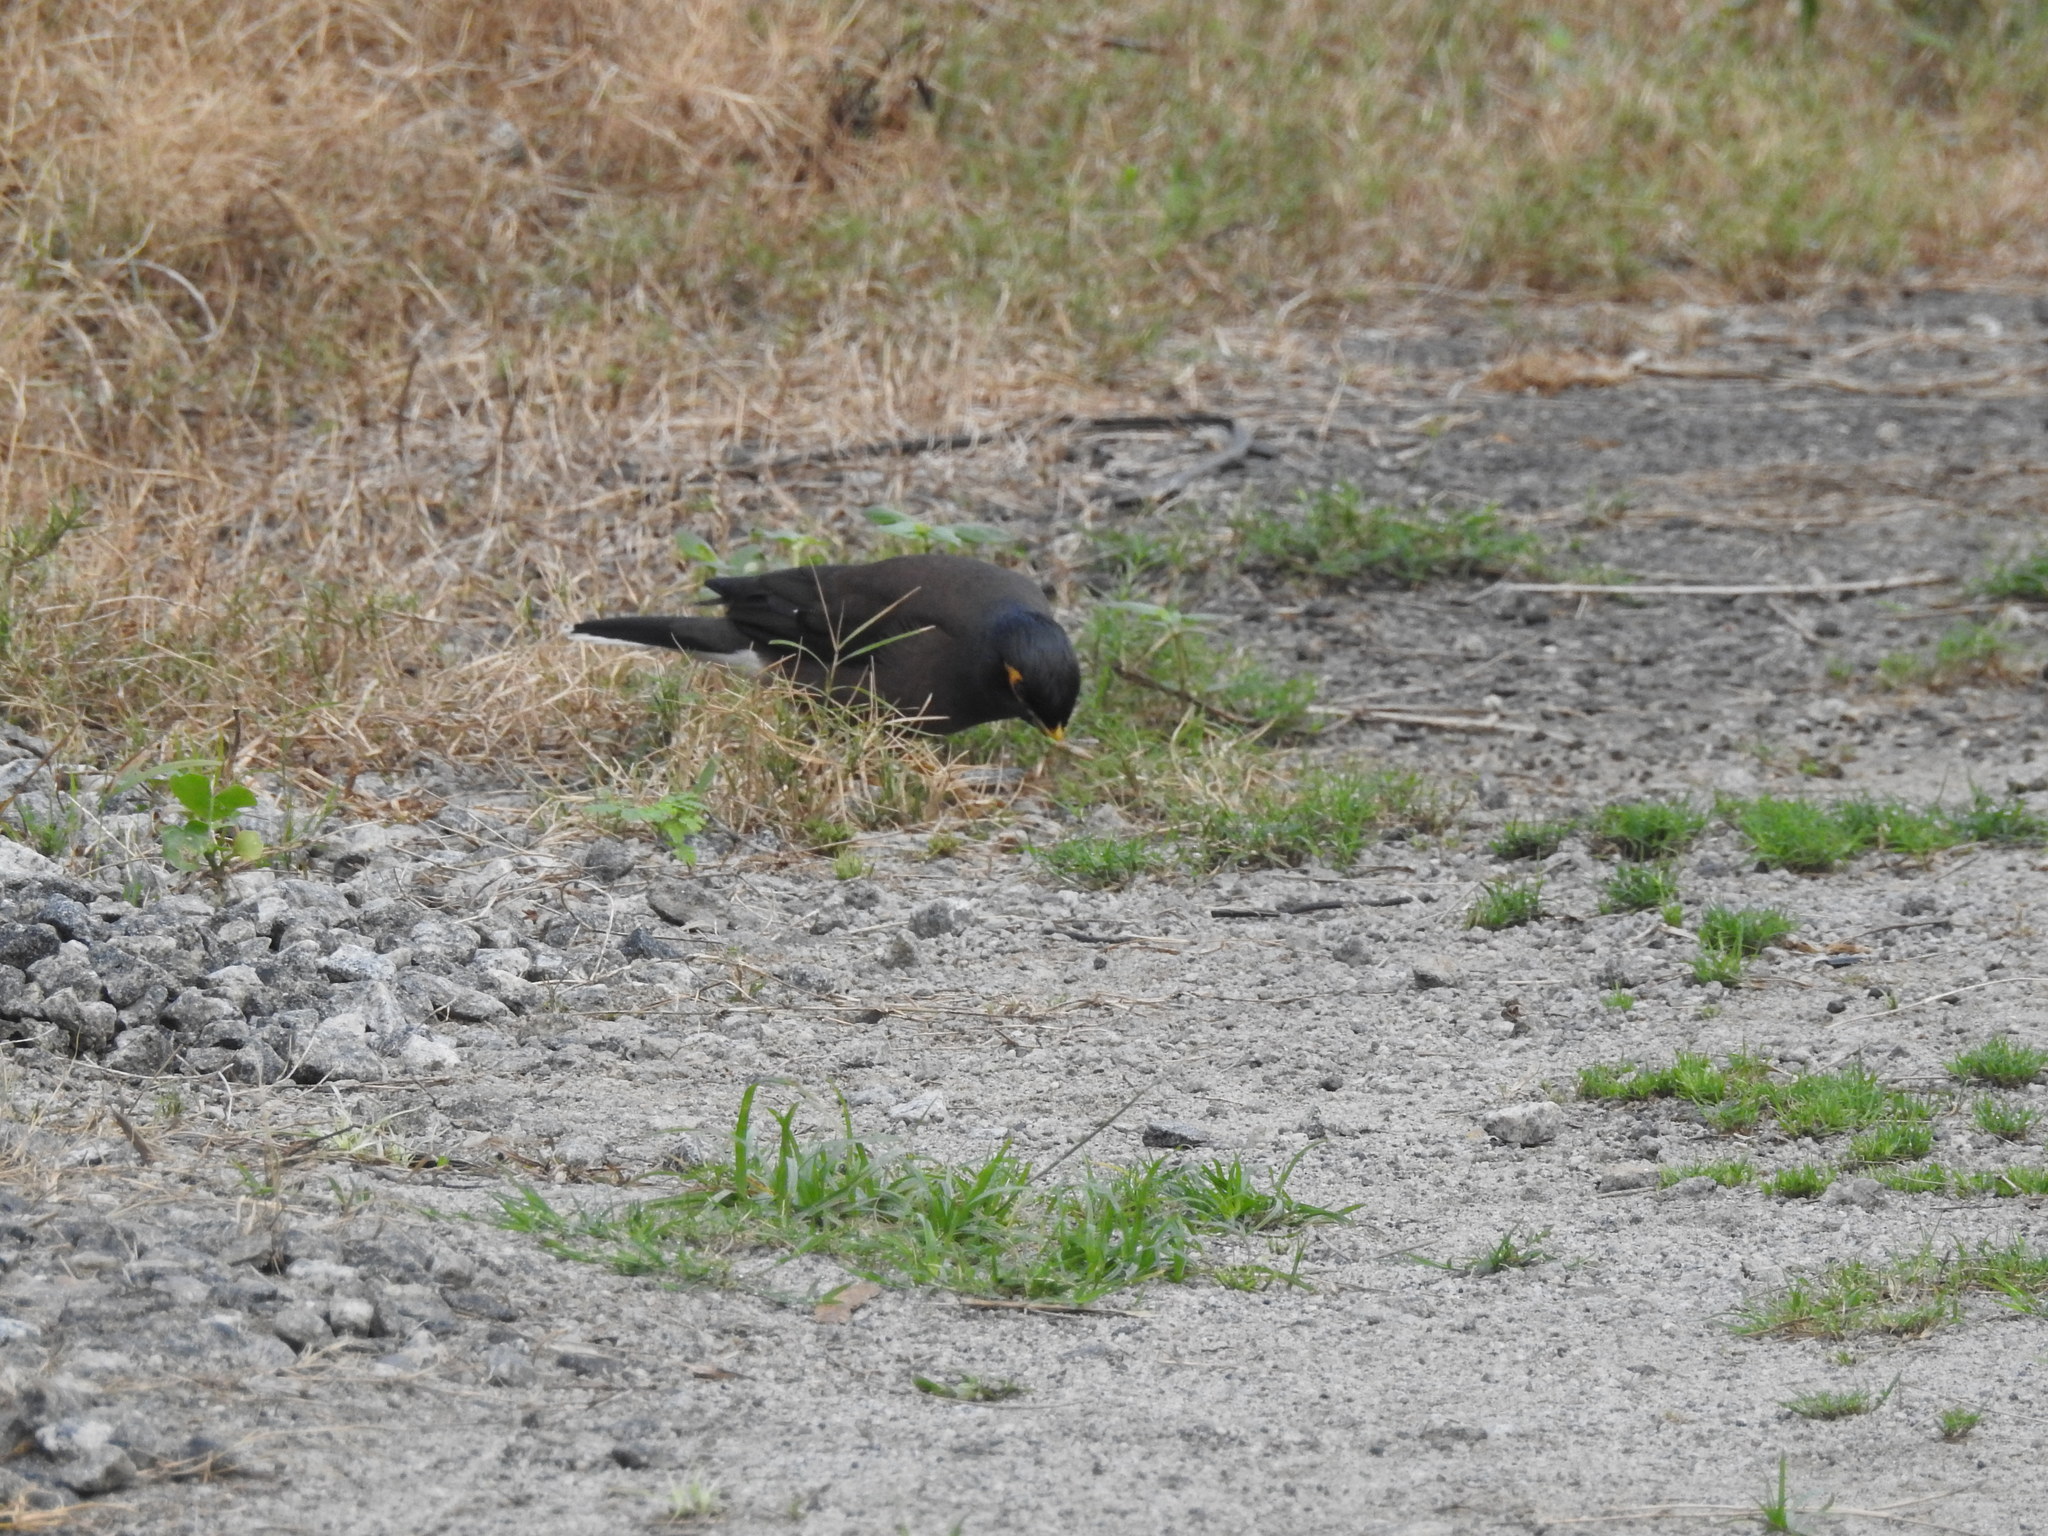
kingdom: Animalia
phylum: Chordata
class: Aves
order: Passeriformes
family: Sturnidae
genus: Acridotheres
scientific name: Acridotheres tristis
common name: Common myna
